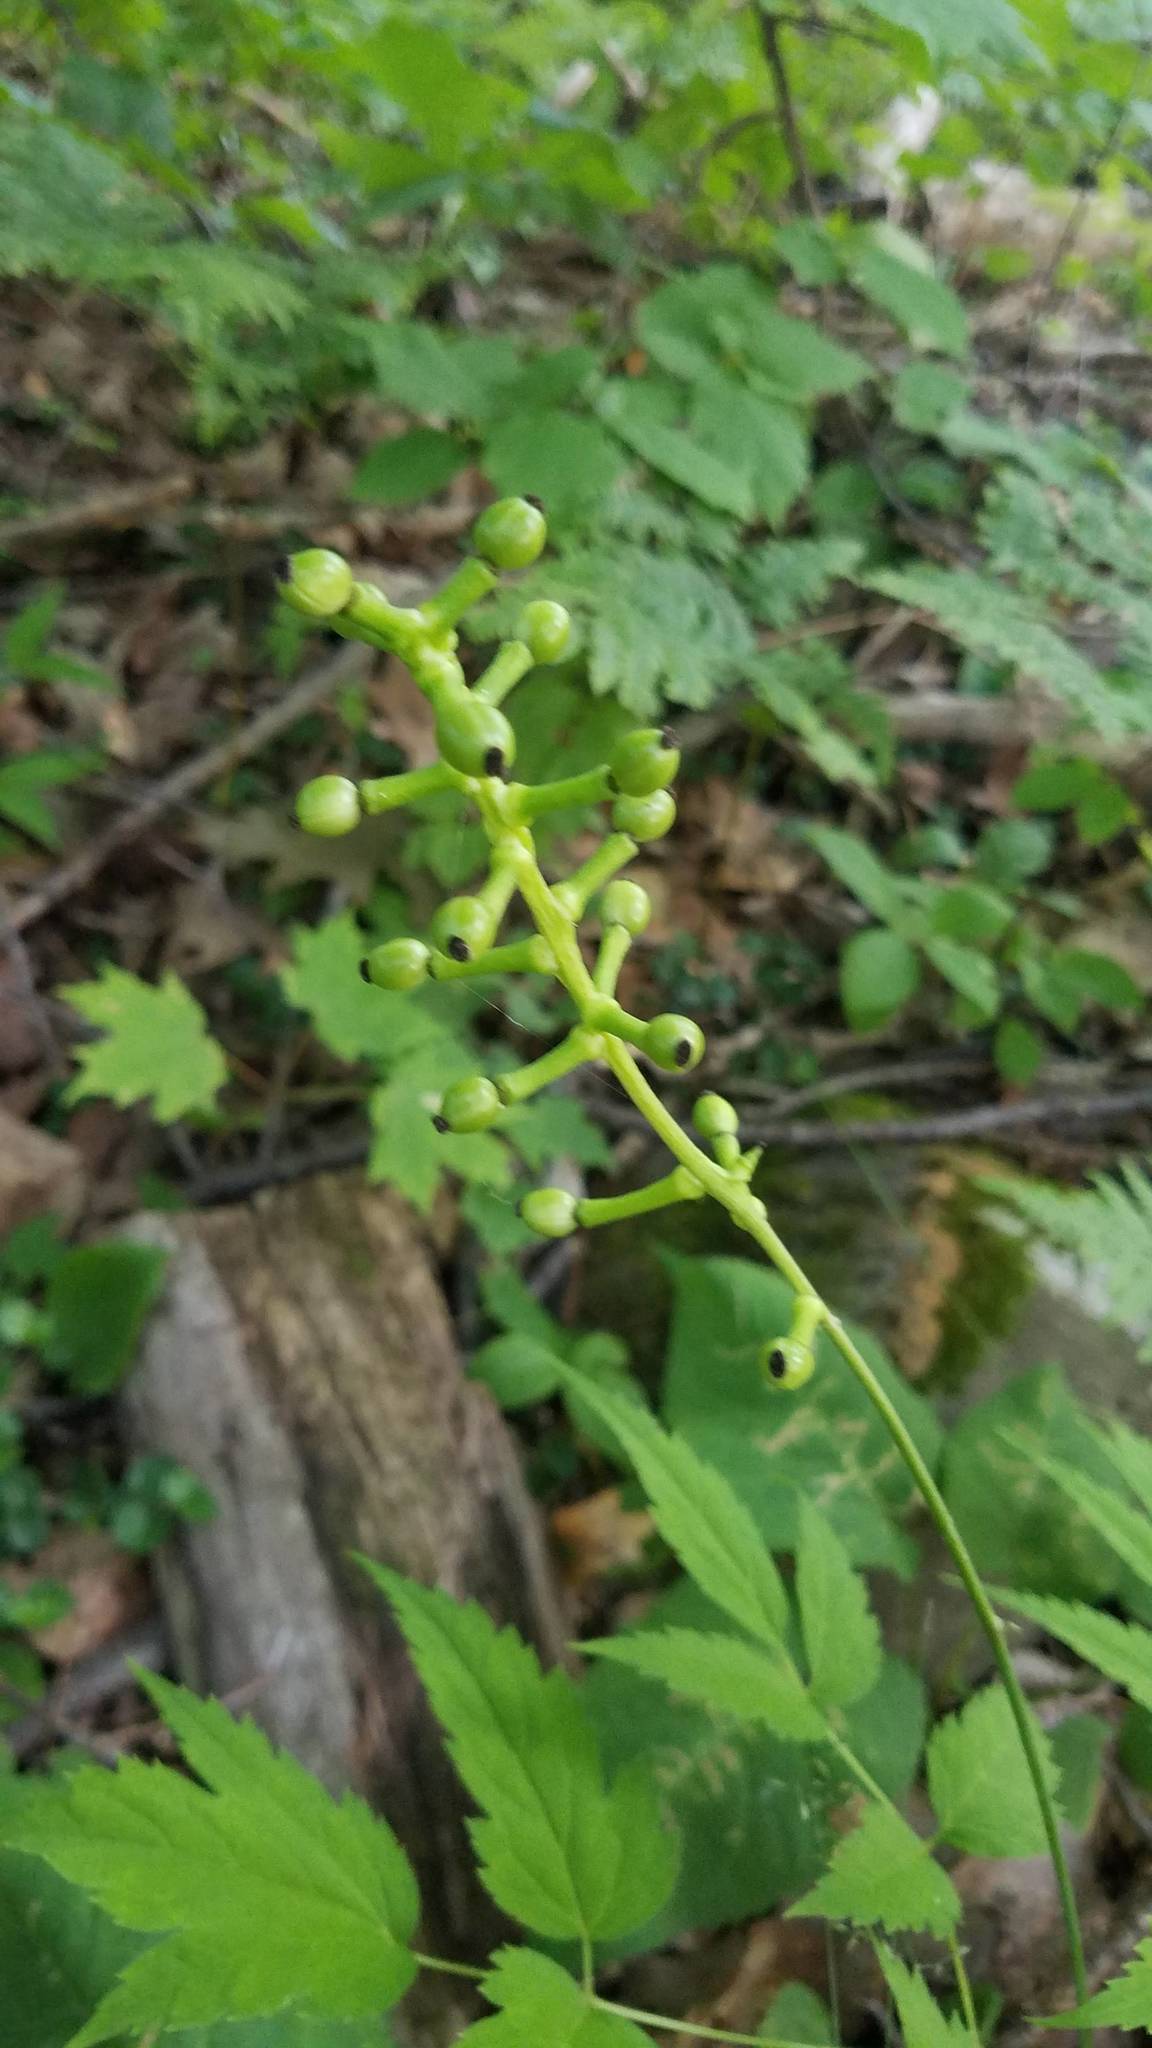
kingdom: Plantae
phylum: Tracheophyta
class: Magnoliopsida
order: Ranunculales
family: Ranunculaceae
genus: Actaea
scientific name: Actaea pachypoda
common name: Doll's-eyes
